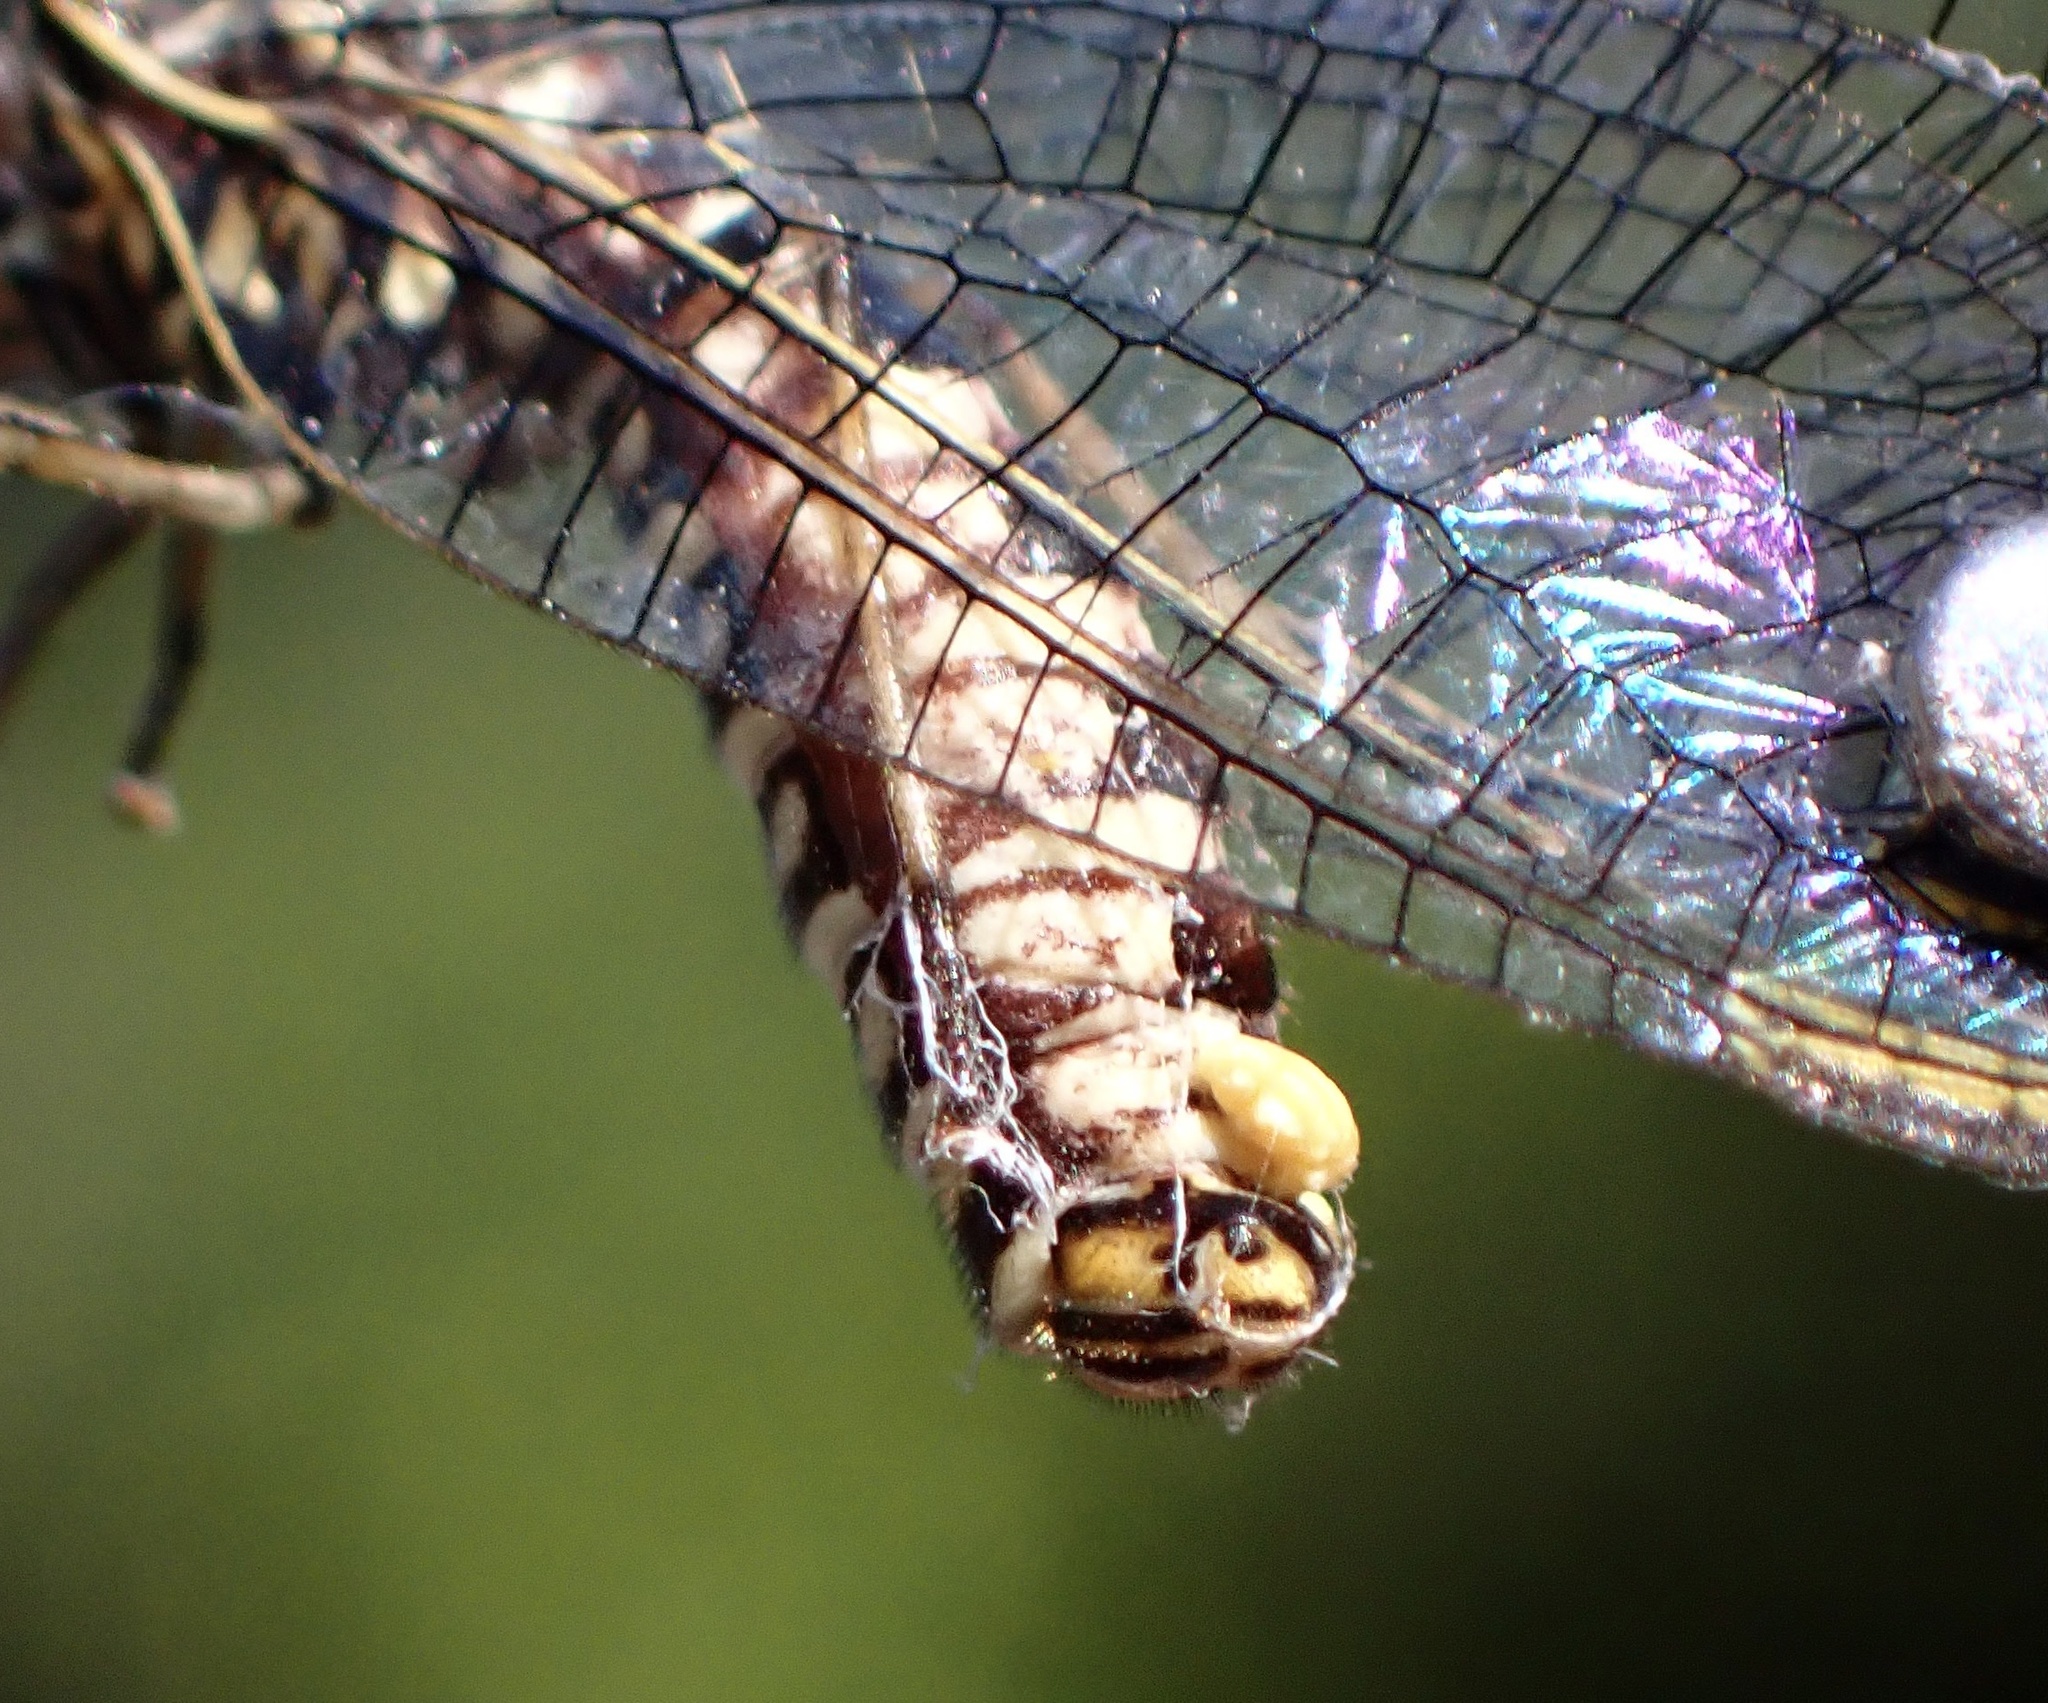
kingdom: Animalia
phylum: Arthropoda
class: Insecta
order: Neuroptera
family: Chrysopidae
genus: Nothochrysa
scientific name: Nothochrysa californica
